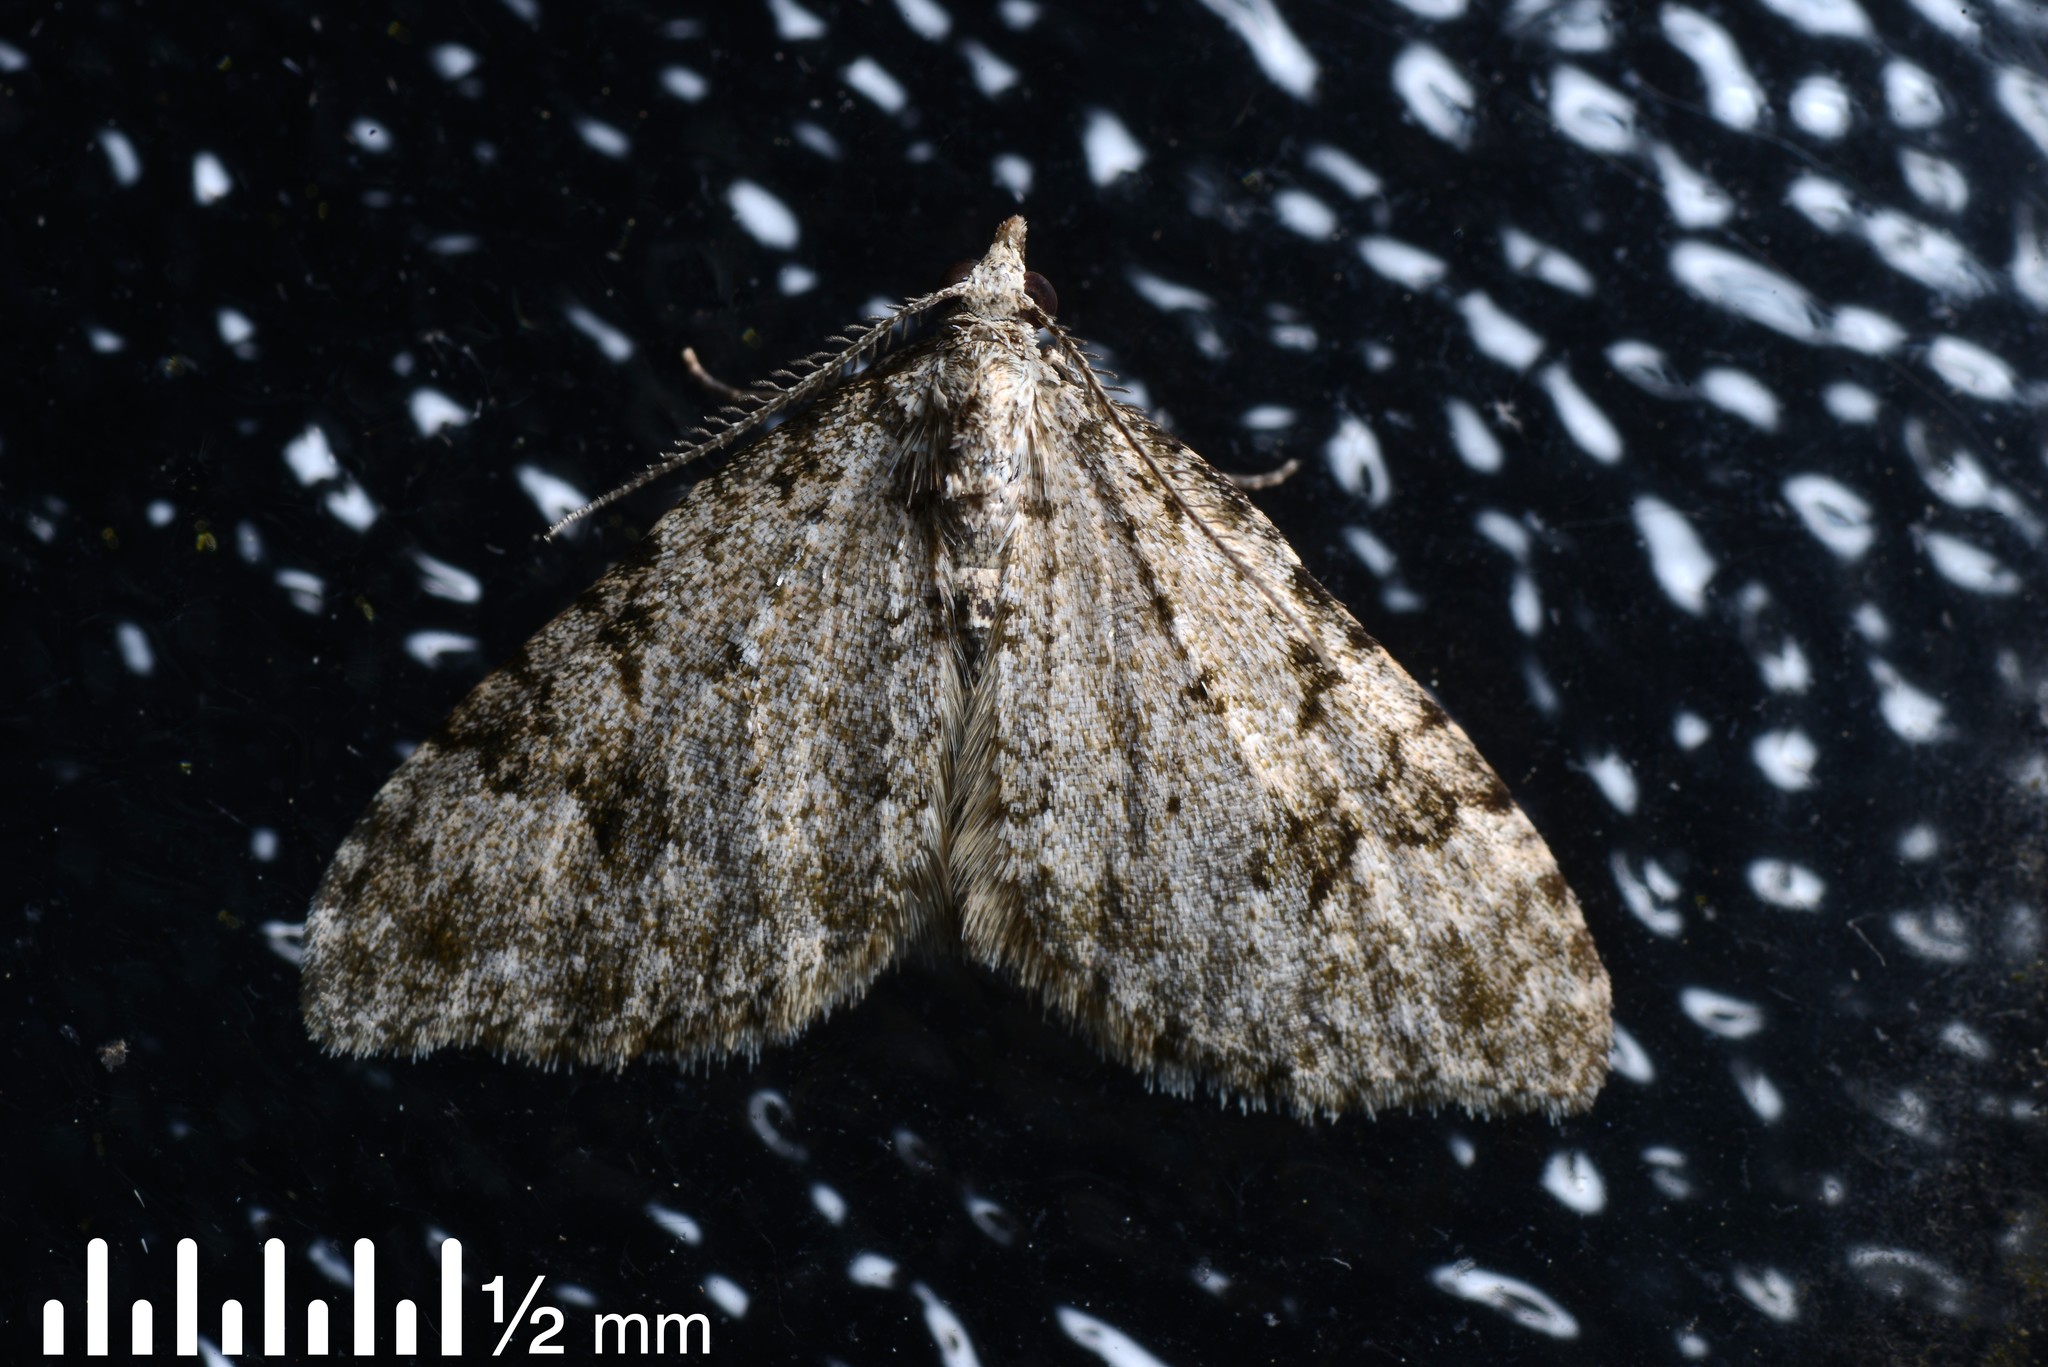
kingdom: Animalia
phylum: Arthropoda
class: Insecta
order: Lepidoptera
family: Geometridae
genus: Helastia
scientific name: Helastia cinerearia
